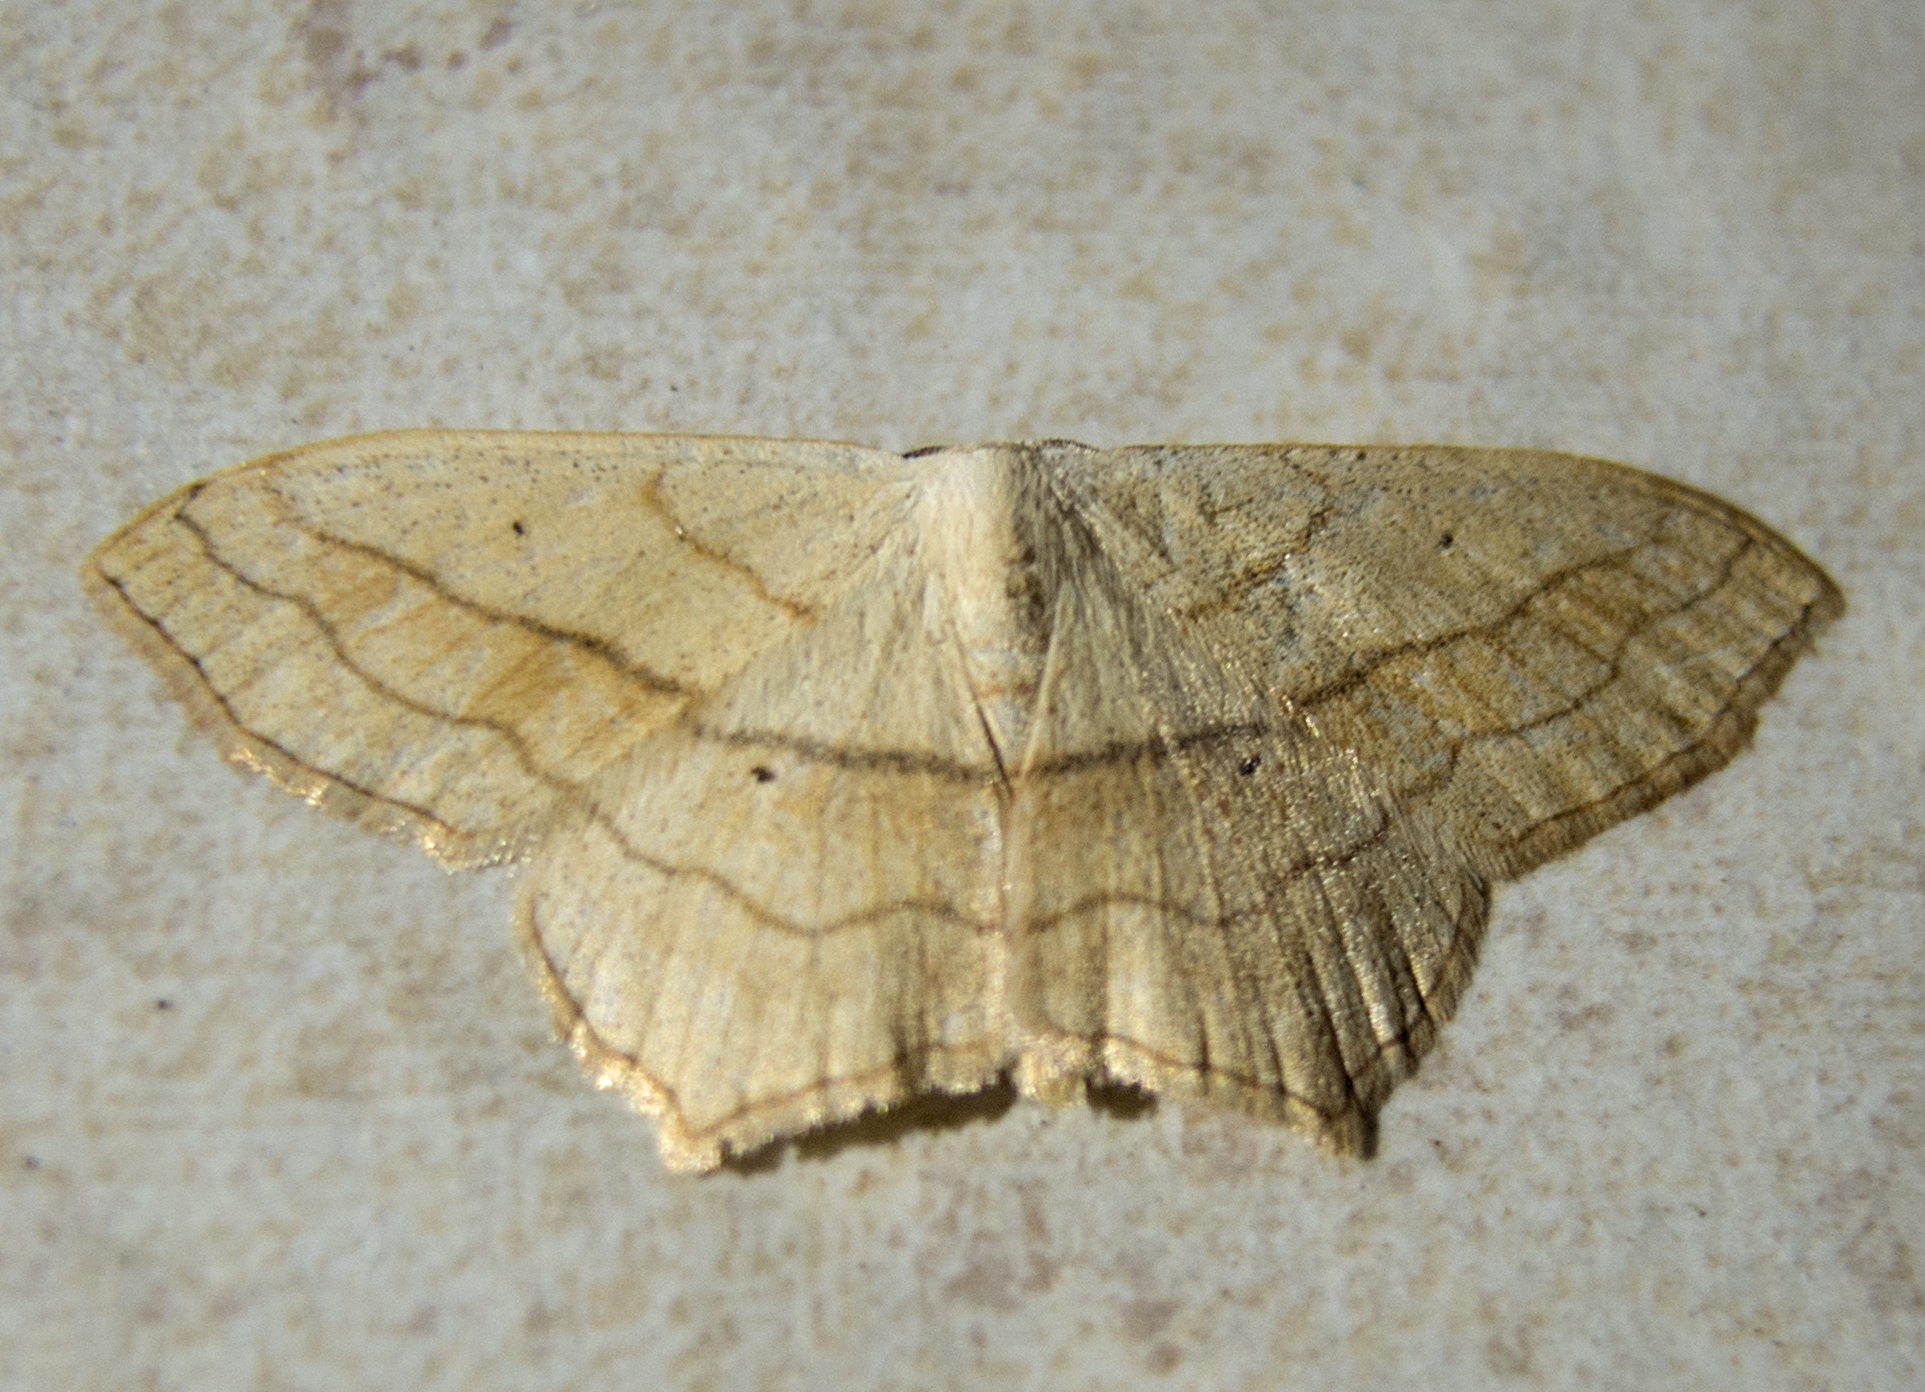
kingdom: Animalia
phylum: Arthropoda
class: Insecta
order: Lepidoptera
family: Geometridae
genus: Scopula
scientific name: Scopula imitaria
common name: Small blood-vein
